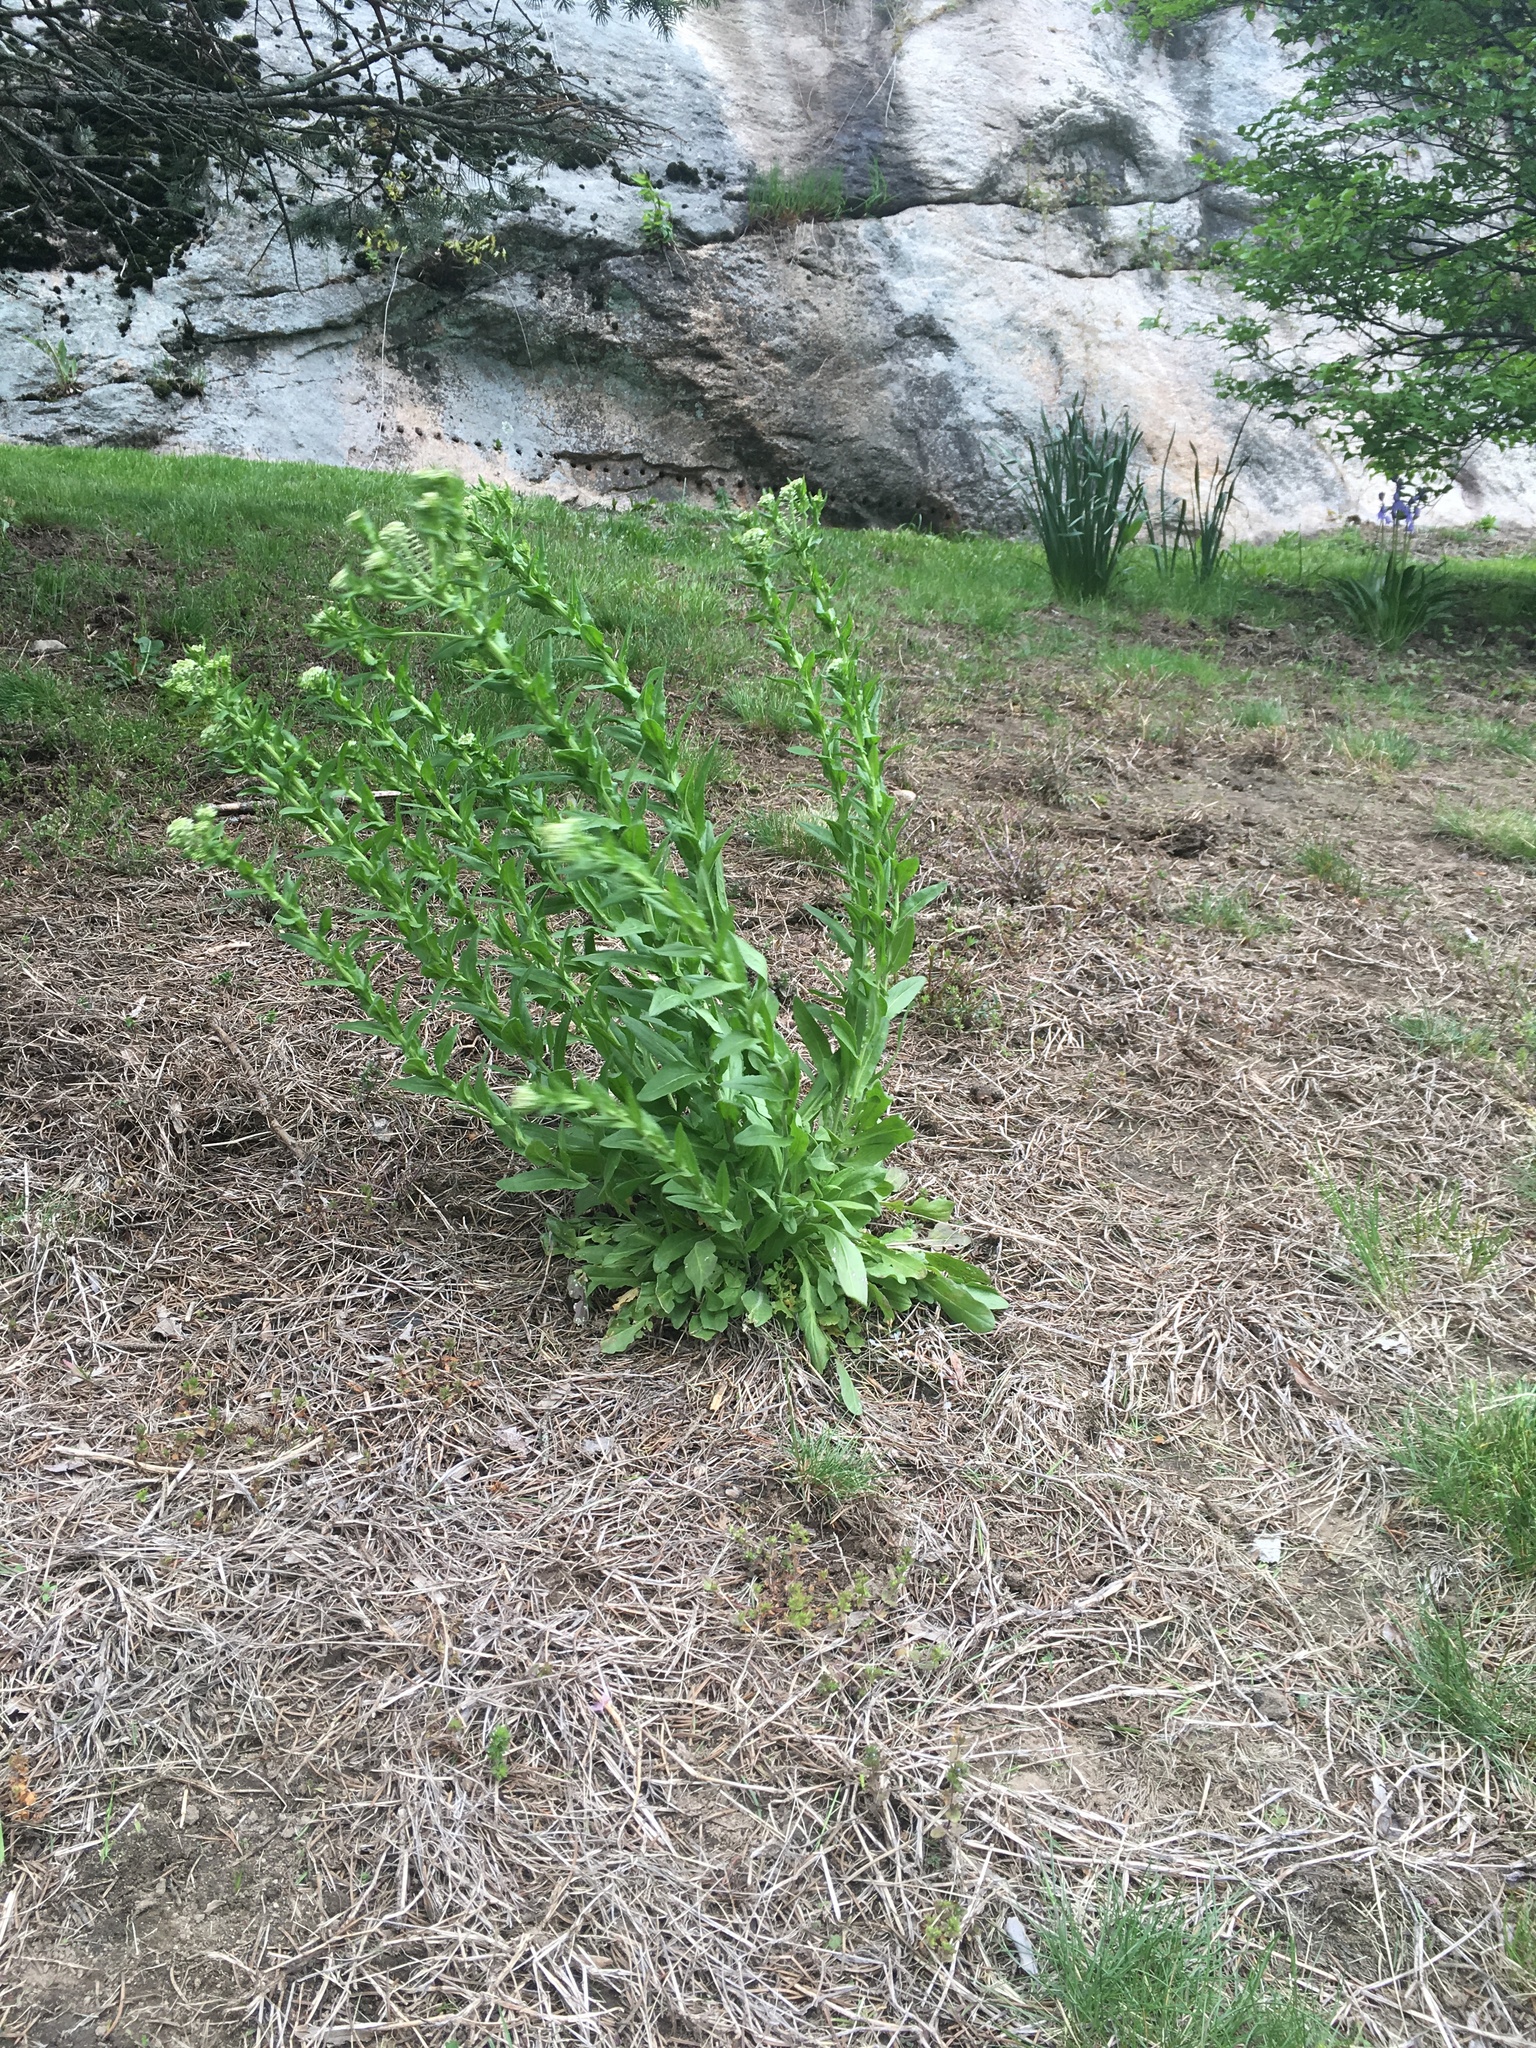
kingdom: Plantae
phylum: Tracheophyta
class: Magnoliopsida
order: Brassicales
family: Brassicaceae
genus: Lepidium
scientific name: Lepidium campestre
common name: Field pepperwort
